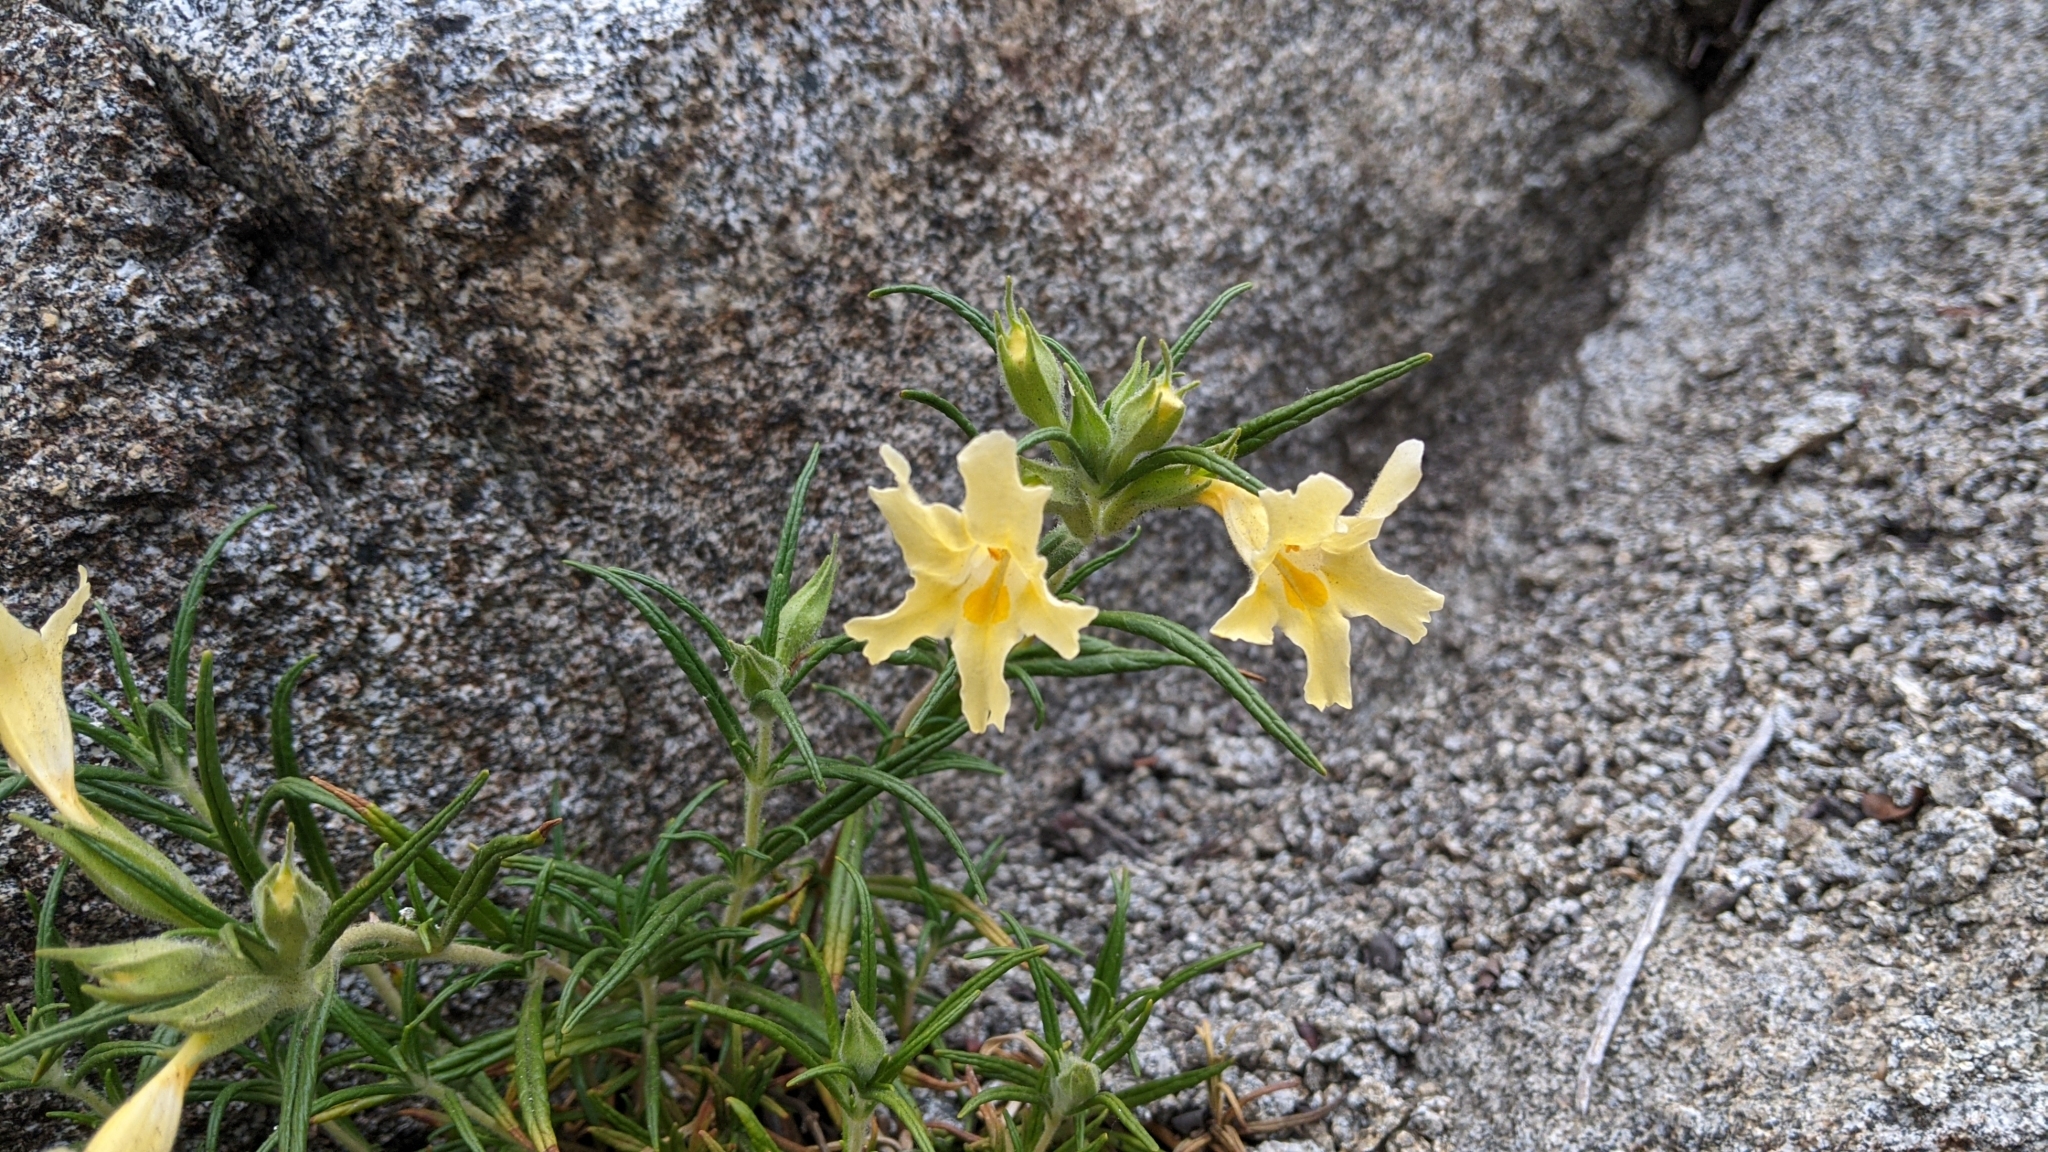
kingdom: Plantae
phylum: Tracheophyta
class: Magnoliopsida
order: Lamiales
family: Phrymaceae
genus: Diplacus
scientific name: Diplacus longiflorus
